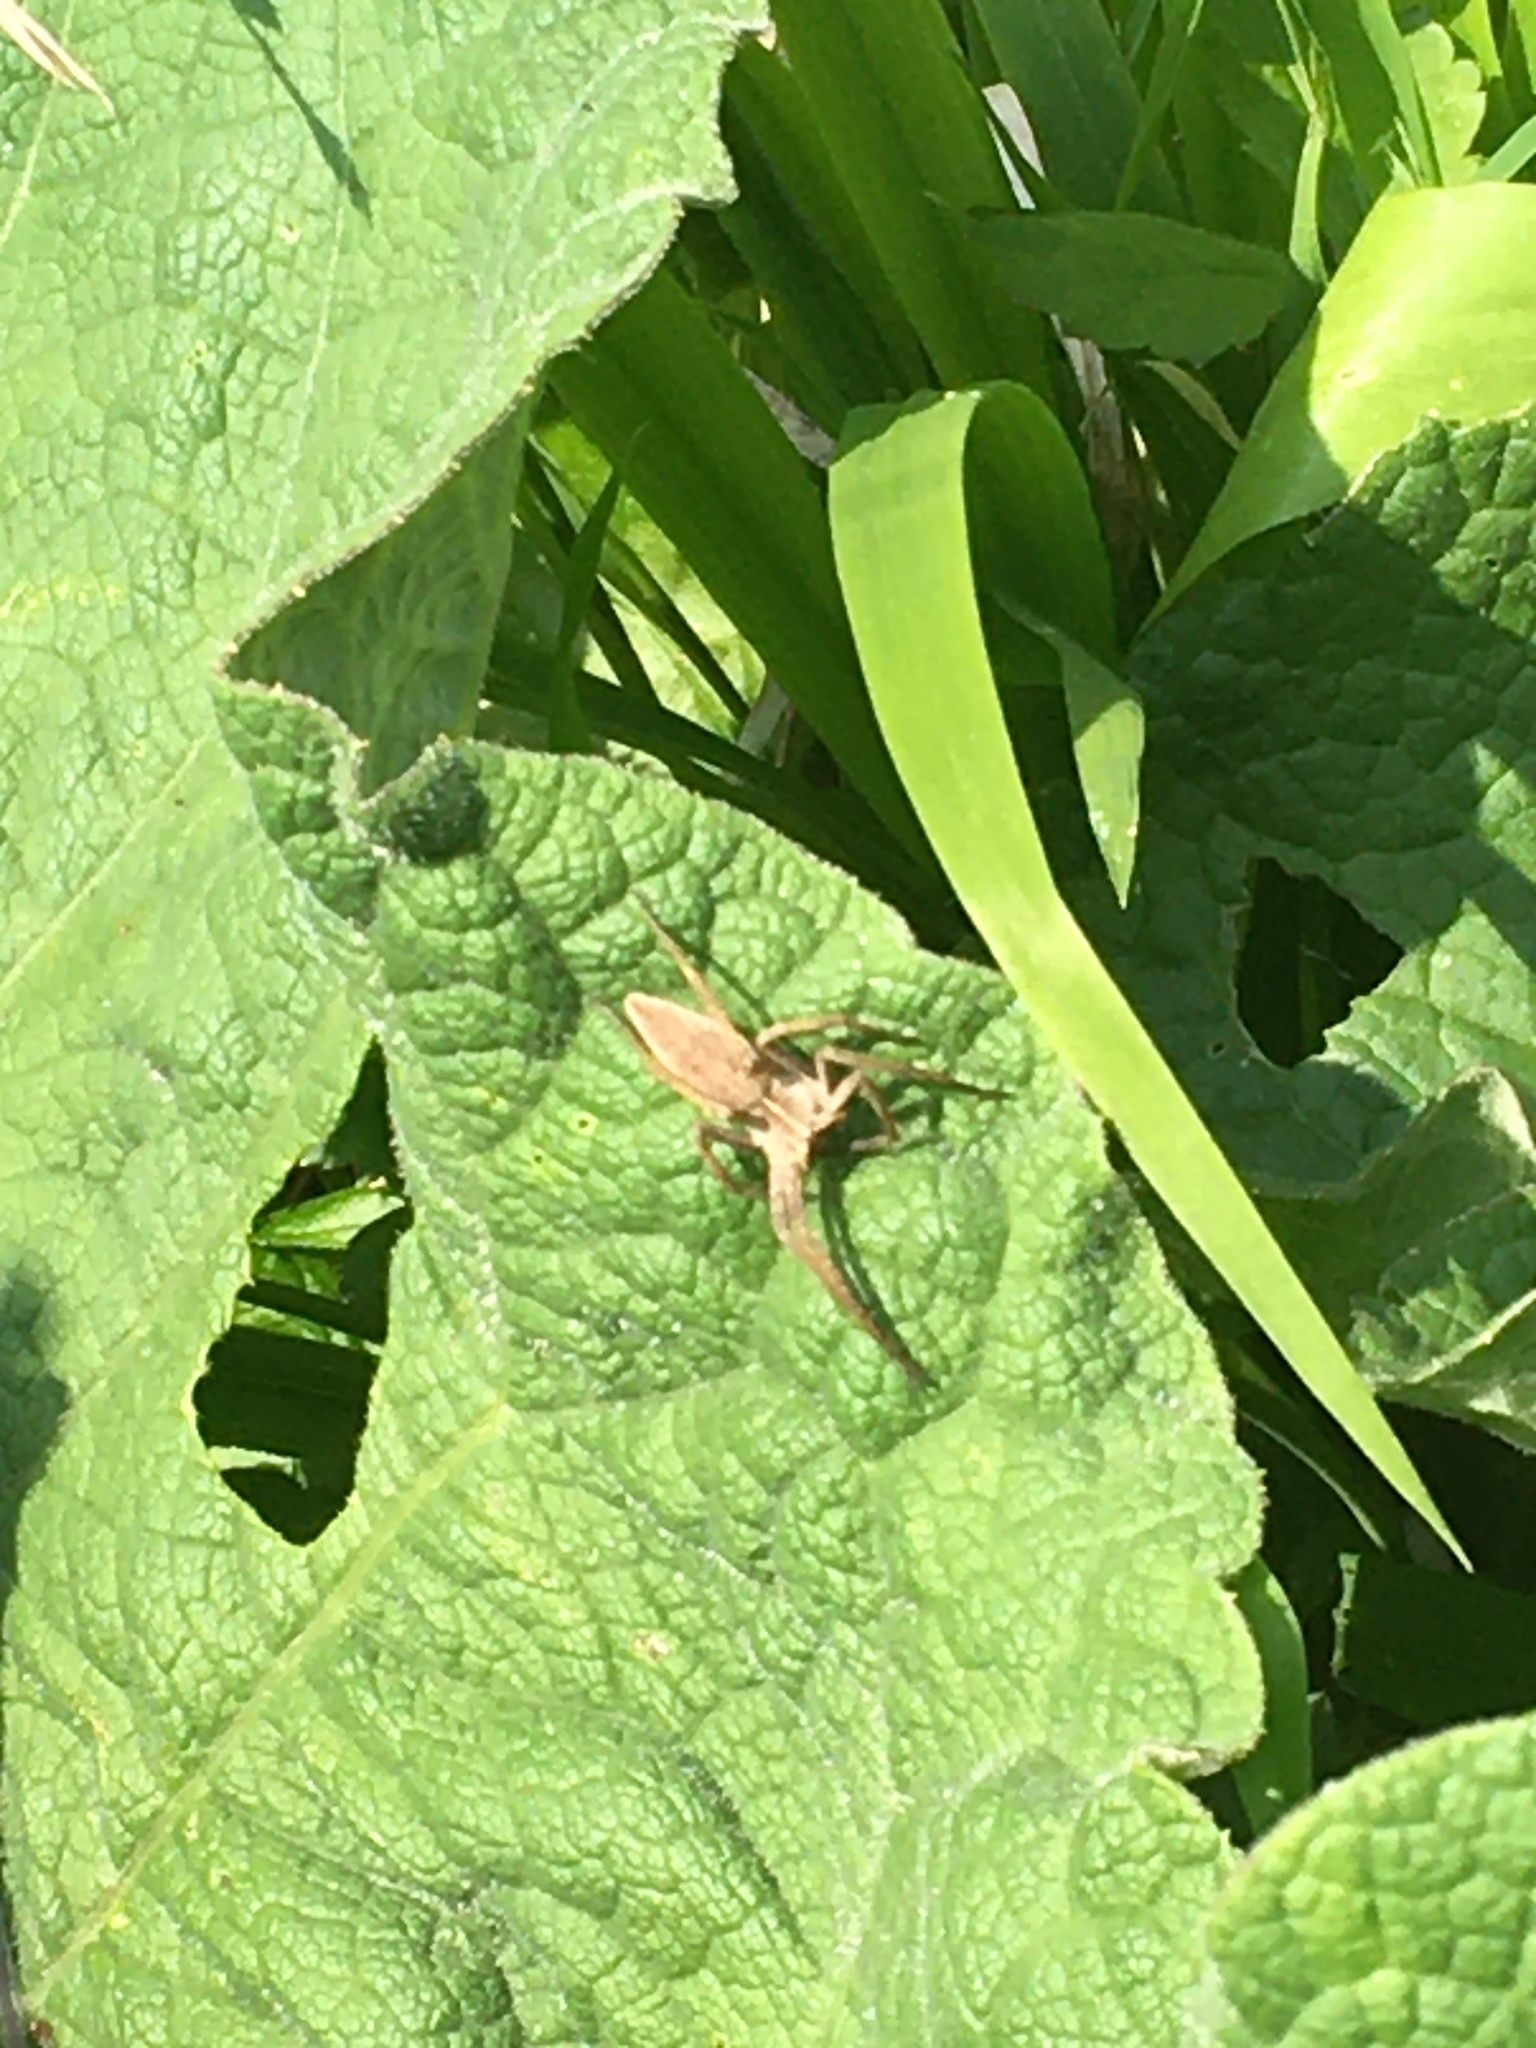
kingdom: Animalia
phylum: Arthropoda
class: Arachnida
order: Araneae
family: Pisauridae
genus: Pisaura
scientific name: Pisaura mirabilis
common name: Tent spider
